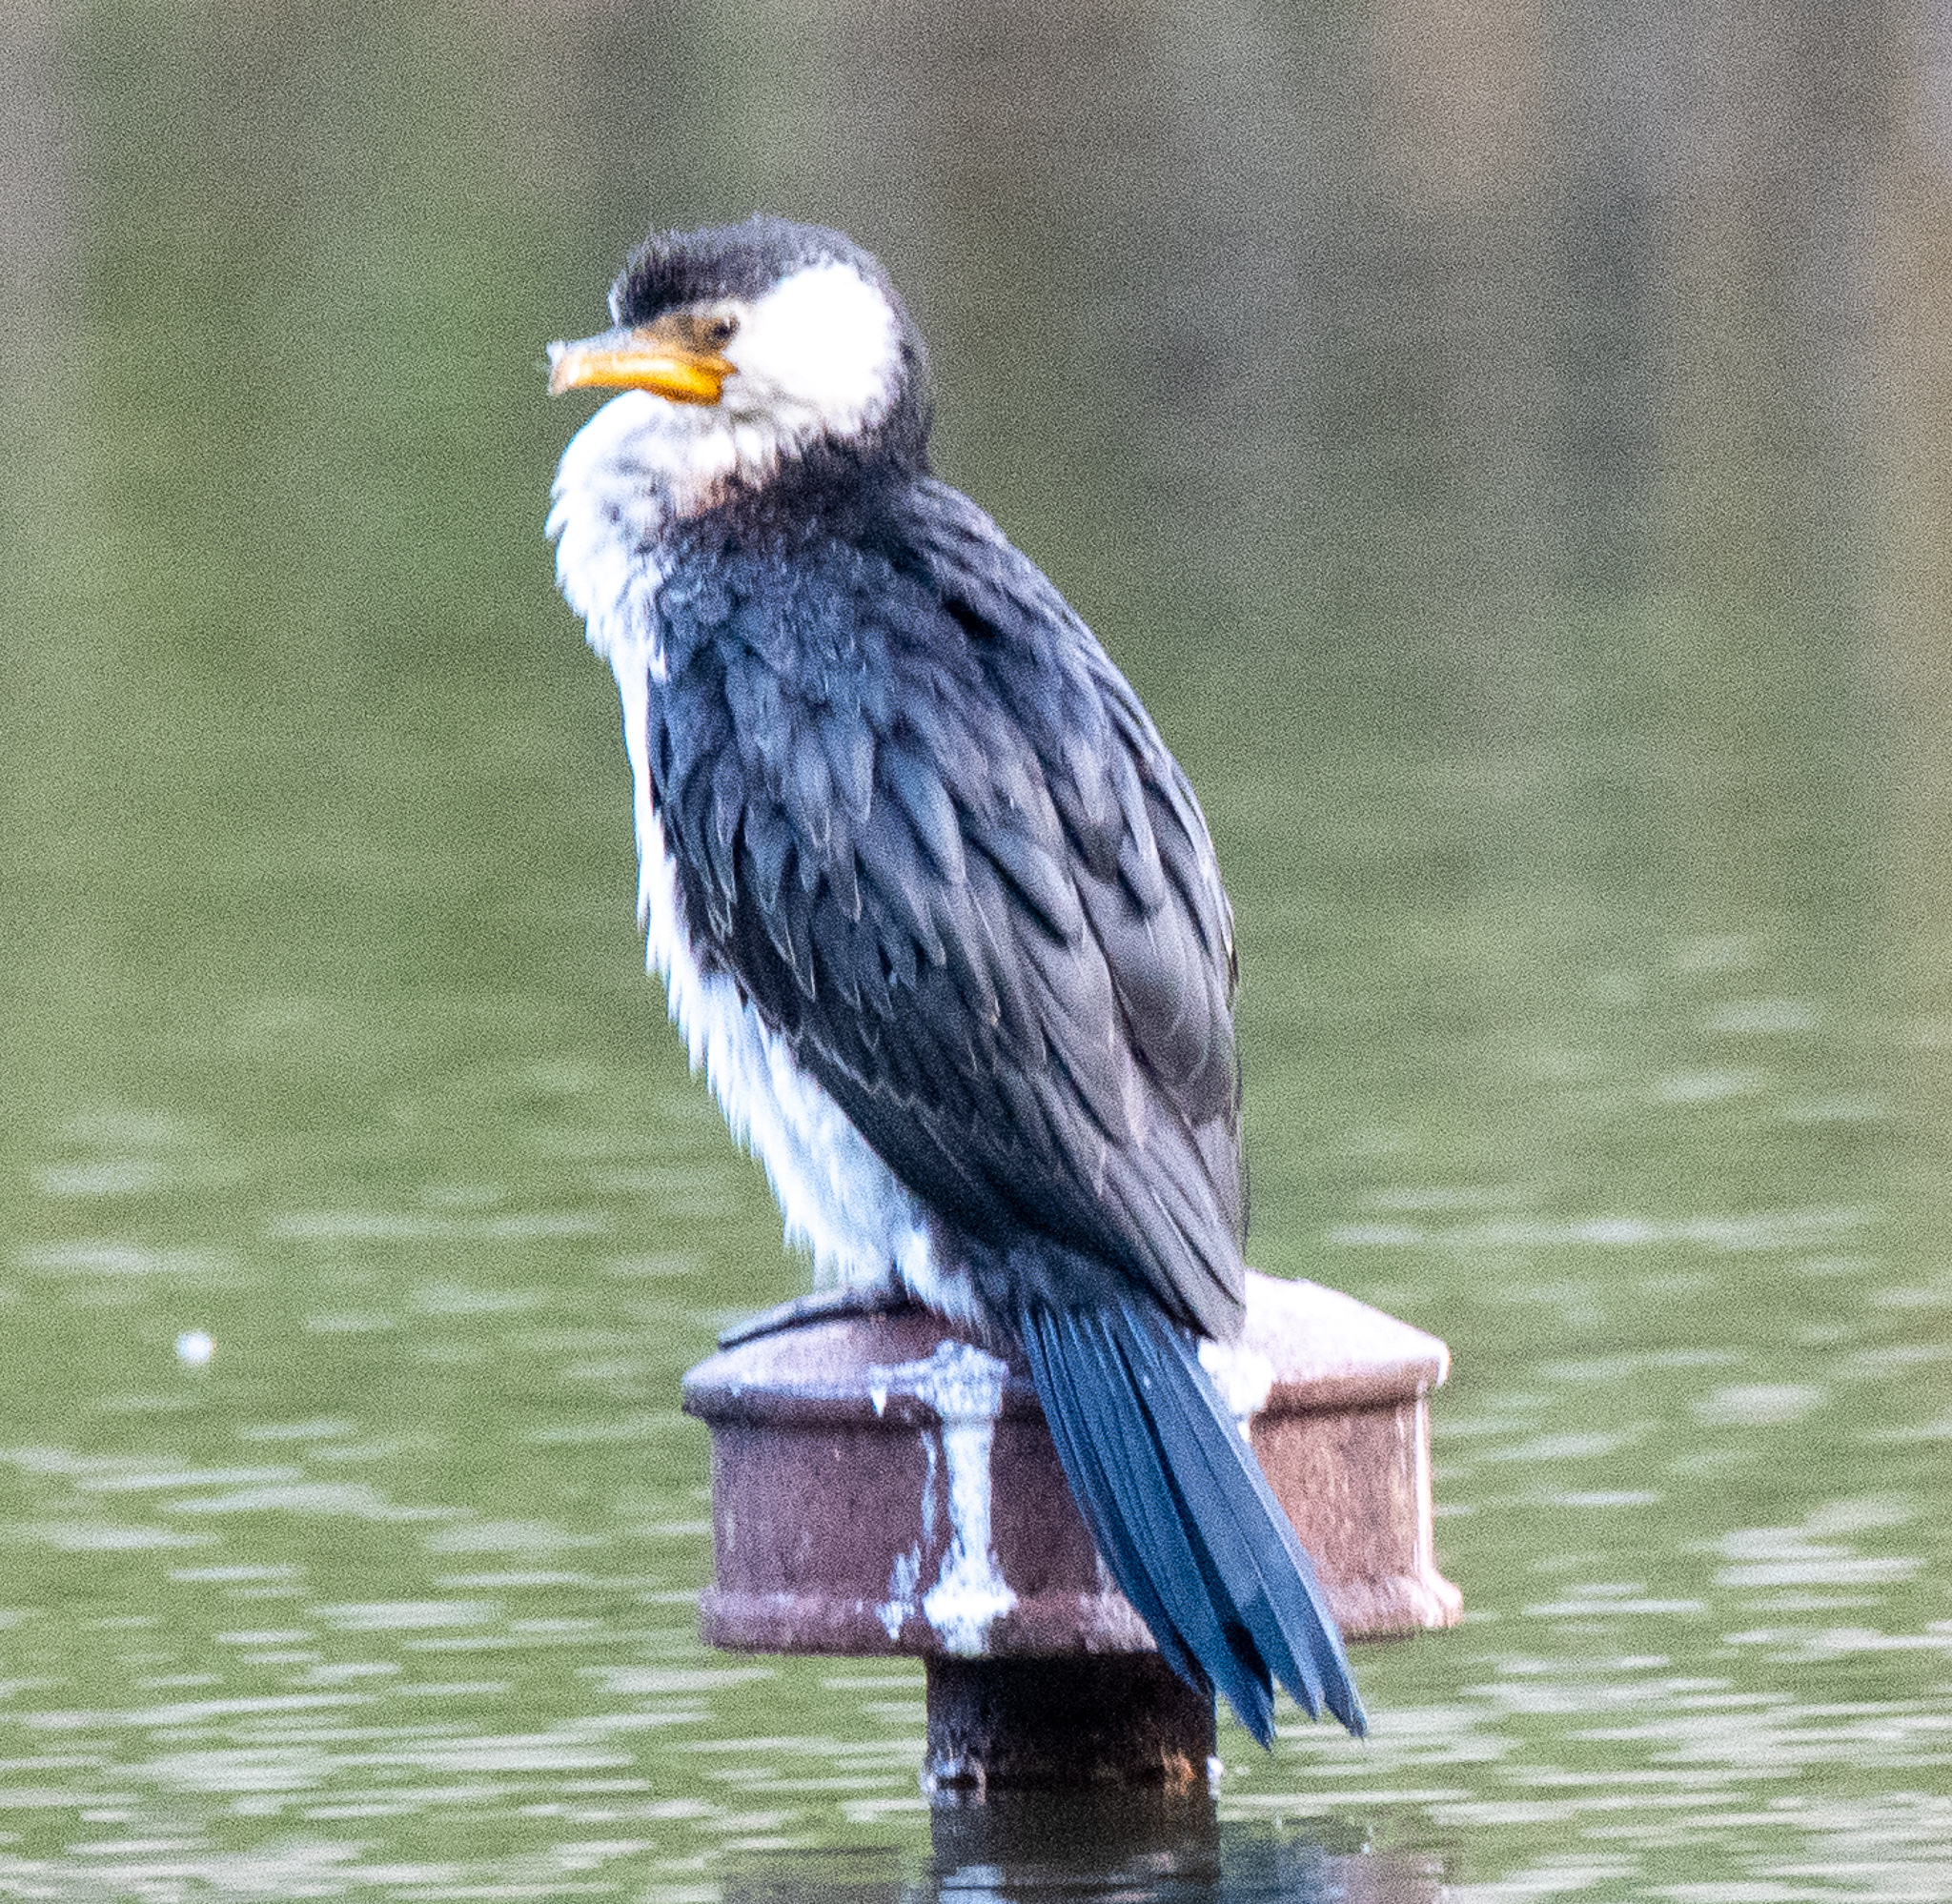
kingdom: Animalia
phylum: Chordata
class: Aves
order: Suliformes
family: Phalacrocoracidae
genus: Microcarbo
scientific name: Microcarbo melanoleucos
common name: Little pied cormorant
